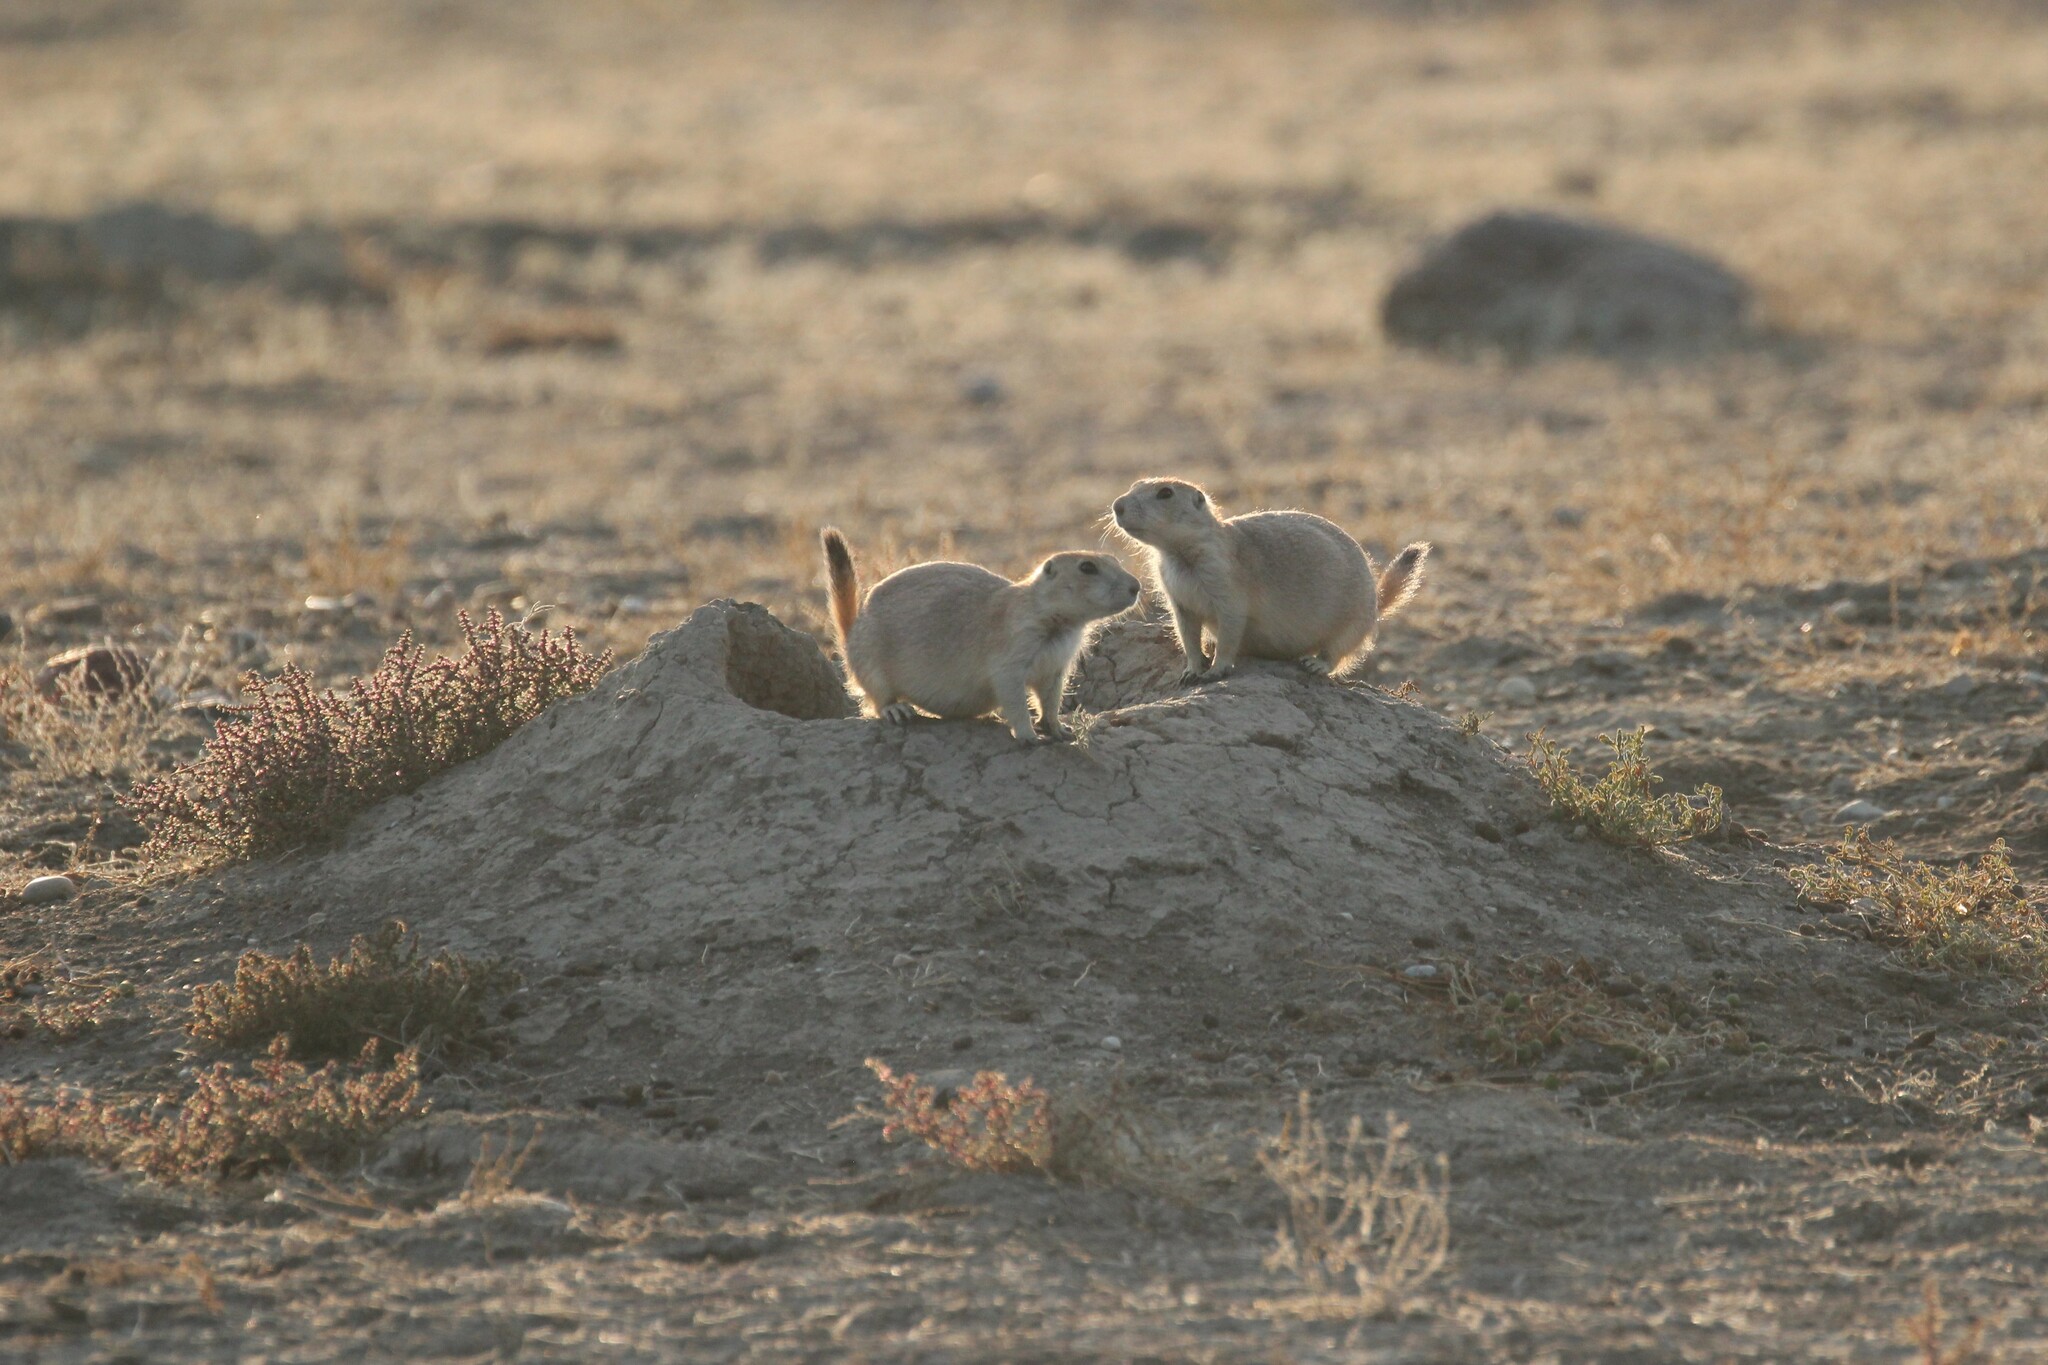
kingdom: Animalia
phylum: Chordata
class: Mammalia
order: Rodentia
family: Sciuridae
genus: Cynomys
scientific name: Cynomys ludovicianus
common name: Black-tailed prairie dog
